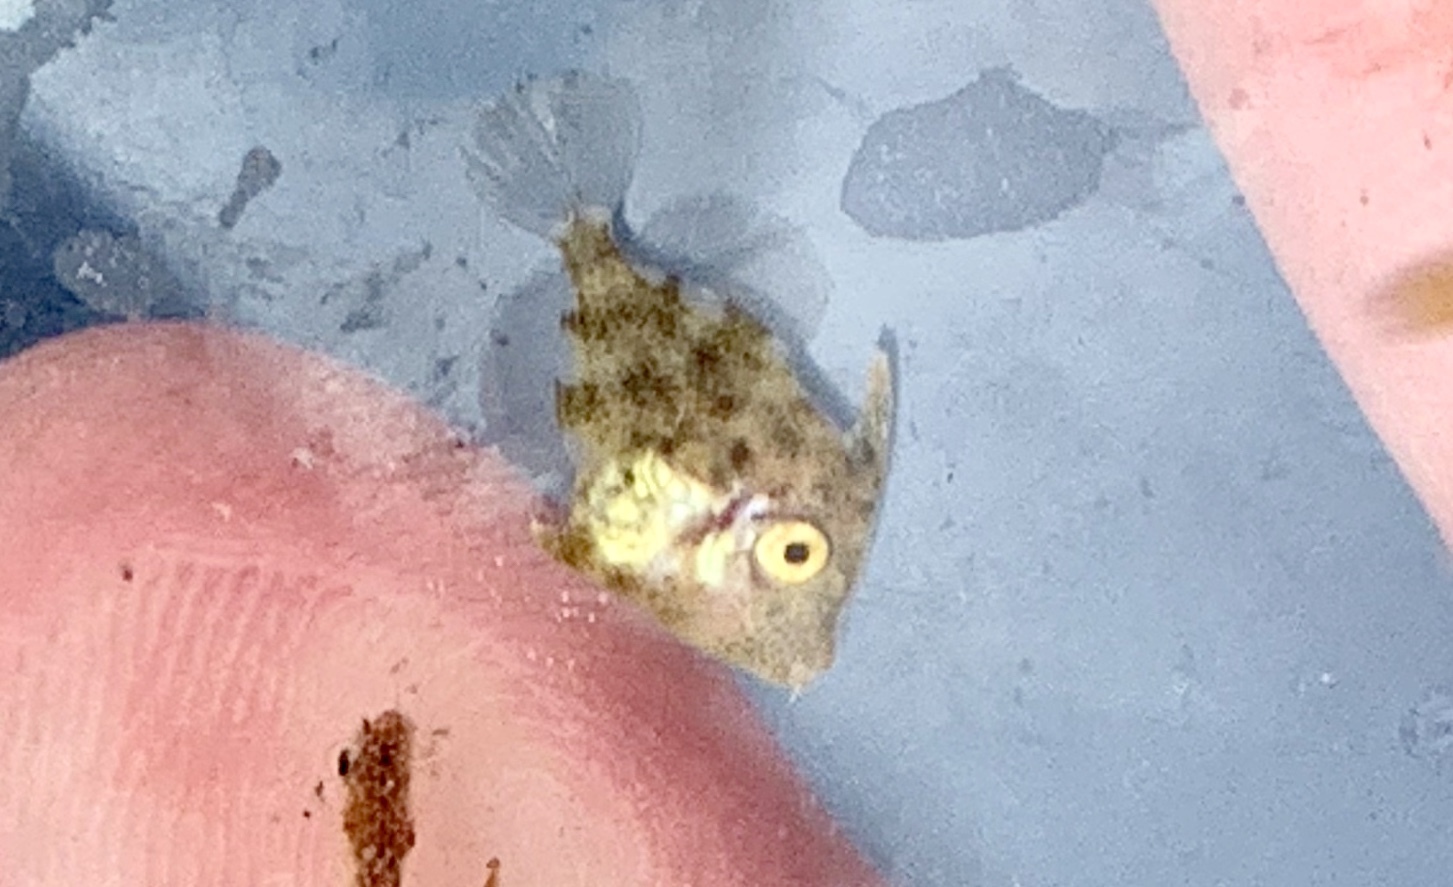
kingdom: Animalia
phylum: Chordata
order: Tetraodontiformes
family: Monacanthidae
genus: Stephanolepis
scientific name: Stephanolepis hispidus
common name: Planehead filefish
